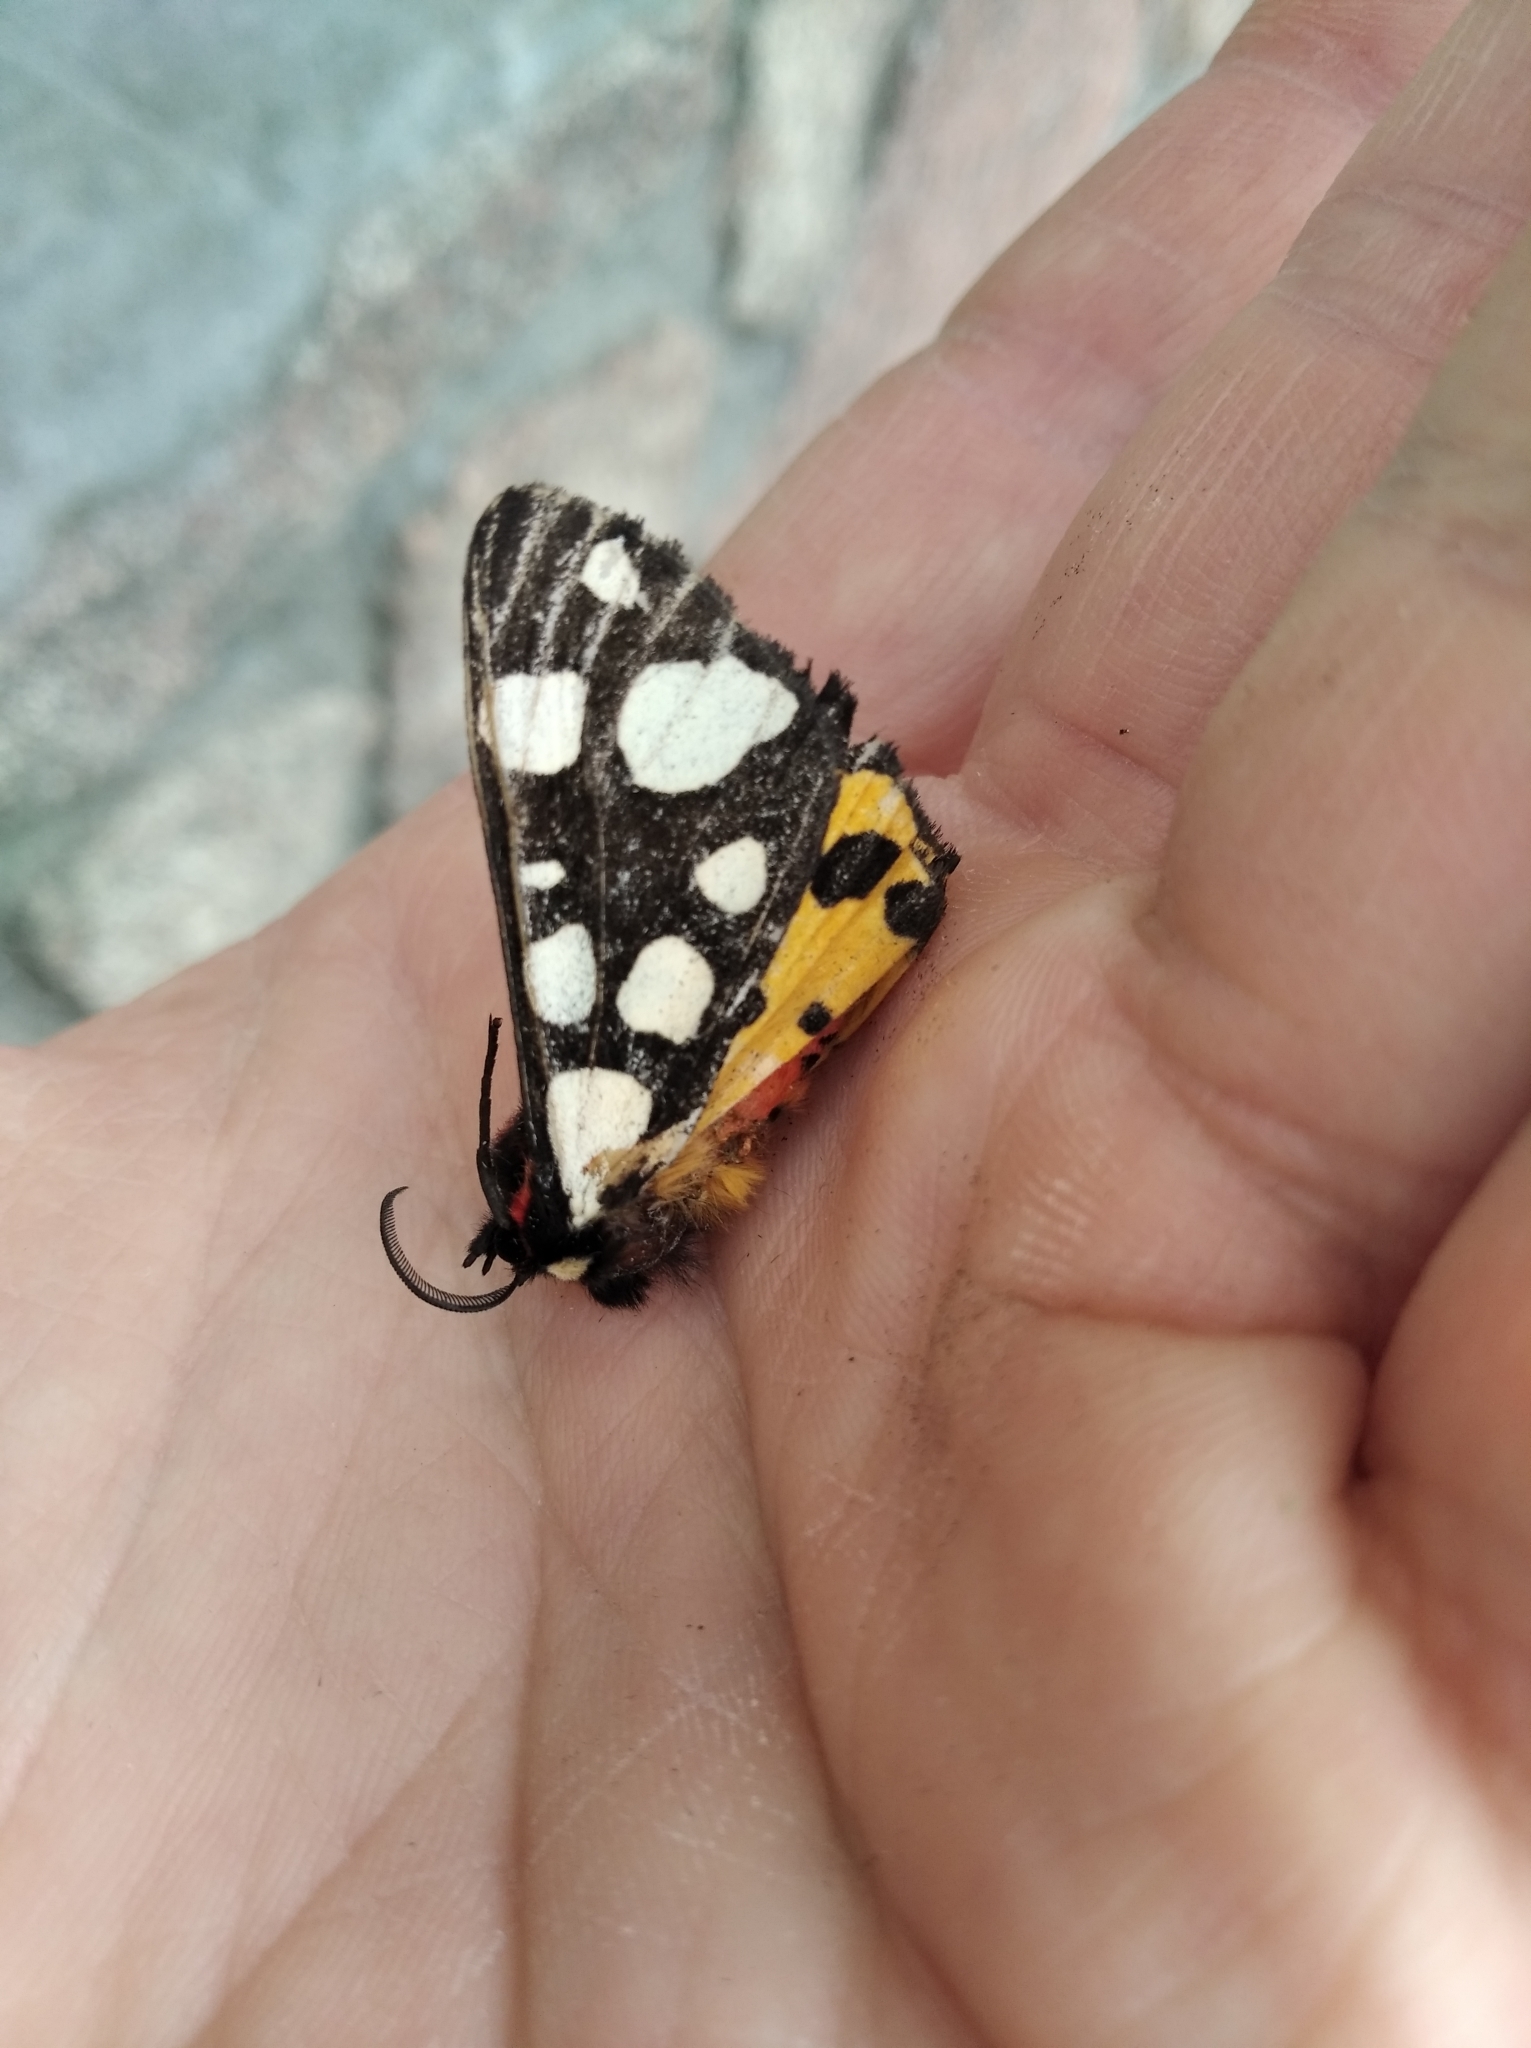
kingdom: Animalia
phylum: Arthropoda
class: Insecta
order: Lepidoptera
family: Erebidae
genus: Epicallia
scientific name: Epicallia villica
